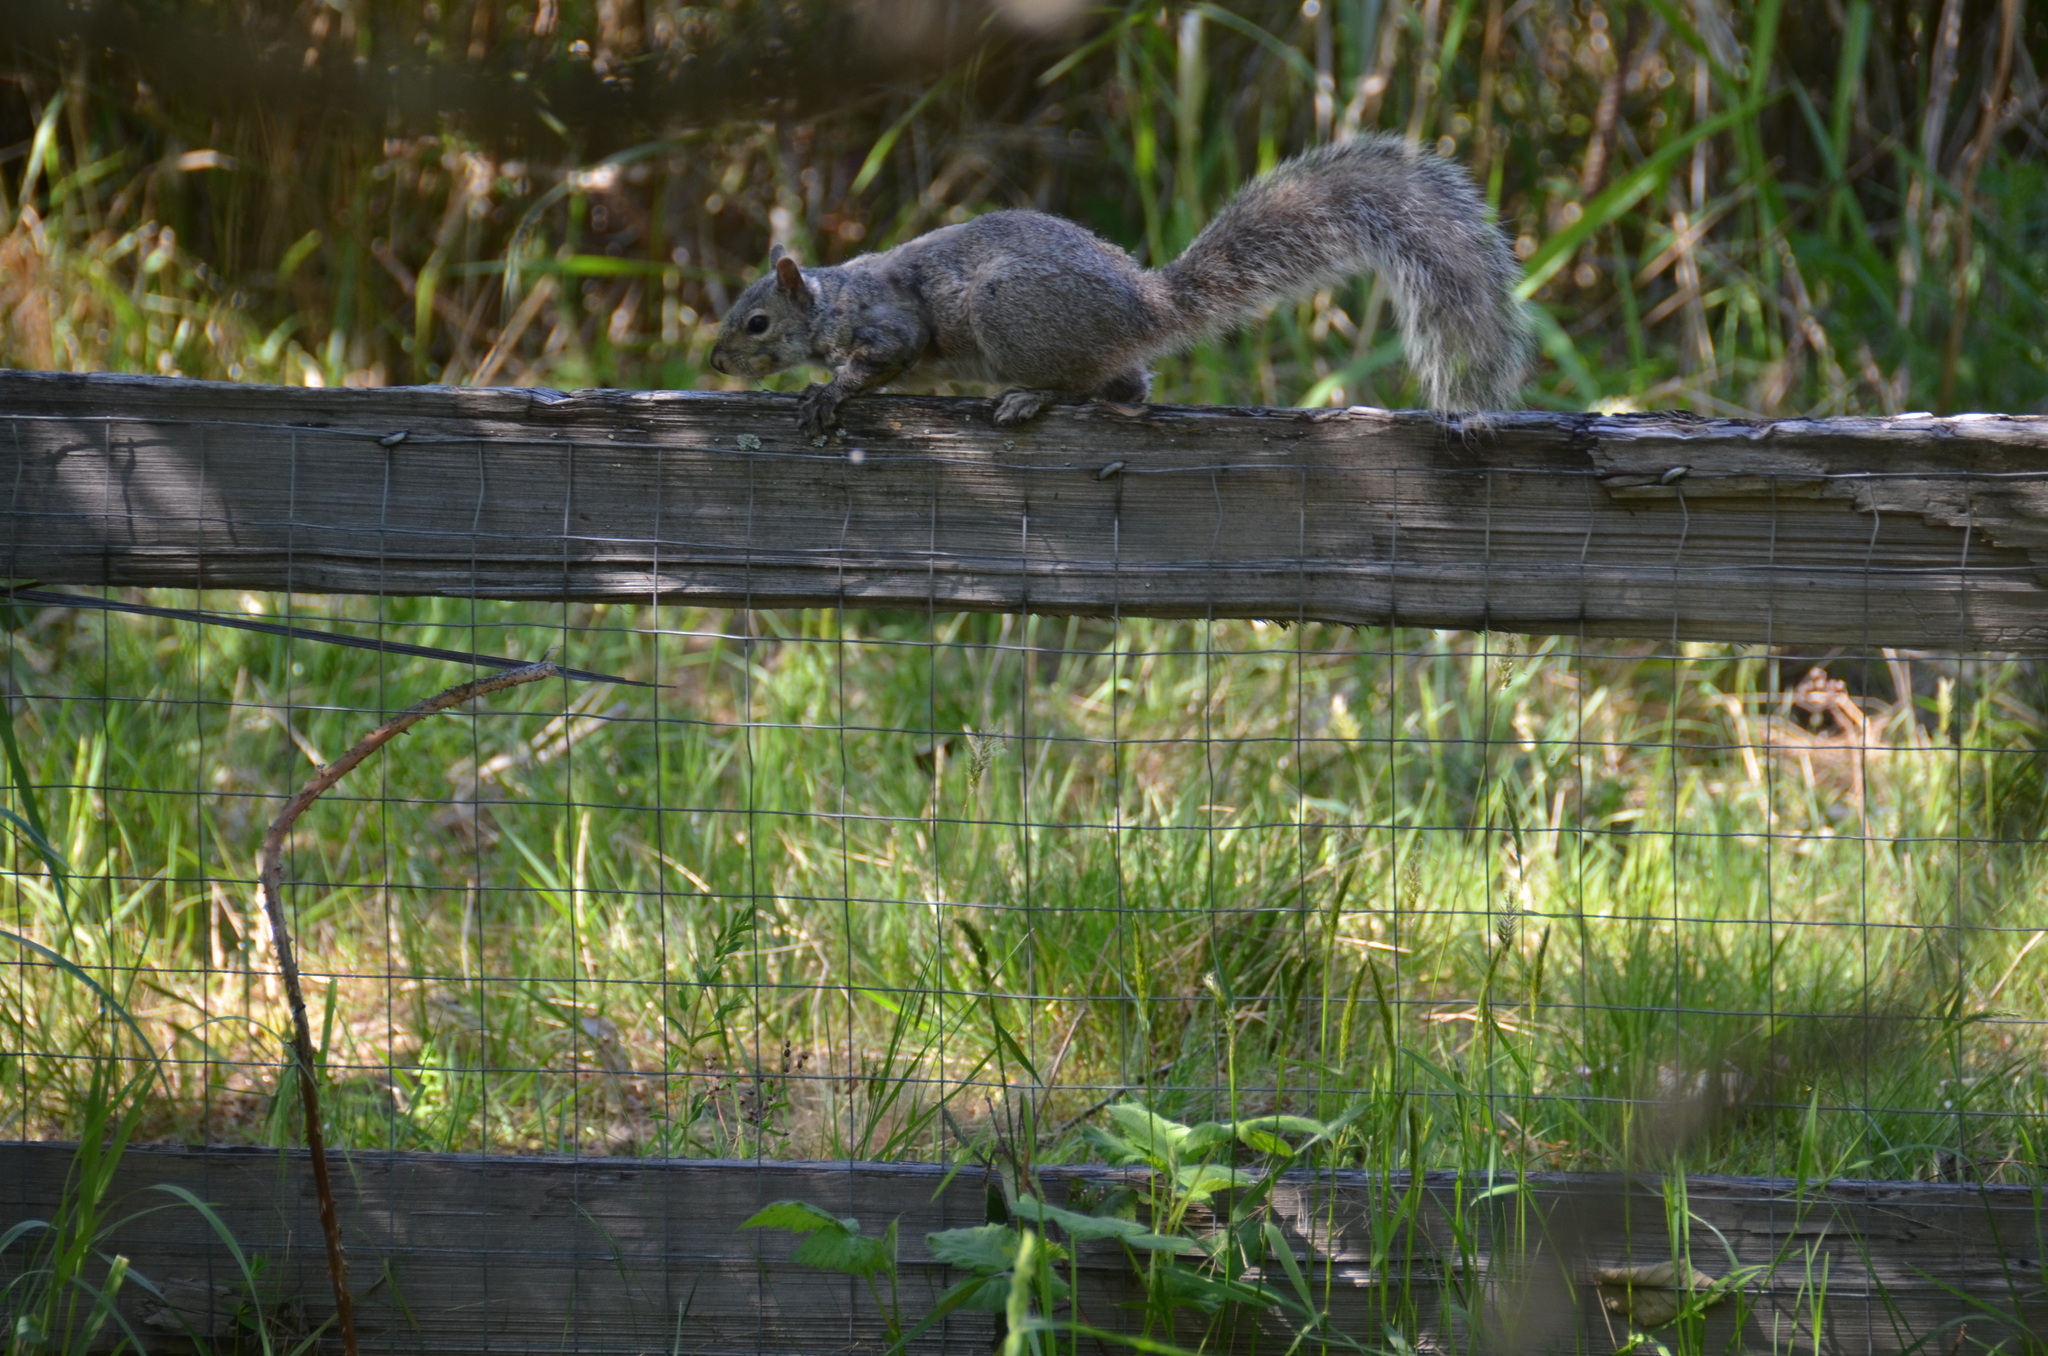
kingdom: Animalia
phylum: Chordata
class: Mammalia
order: Rodentia
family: Sciuridae
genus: Sciurus
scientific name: Sciurus carolinensis
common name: Eastern gray squirrel
